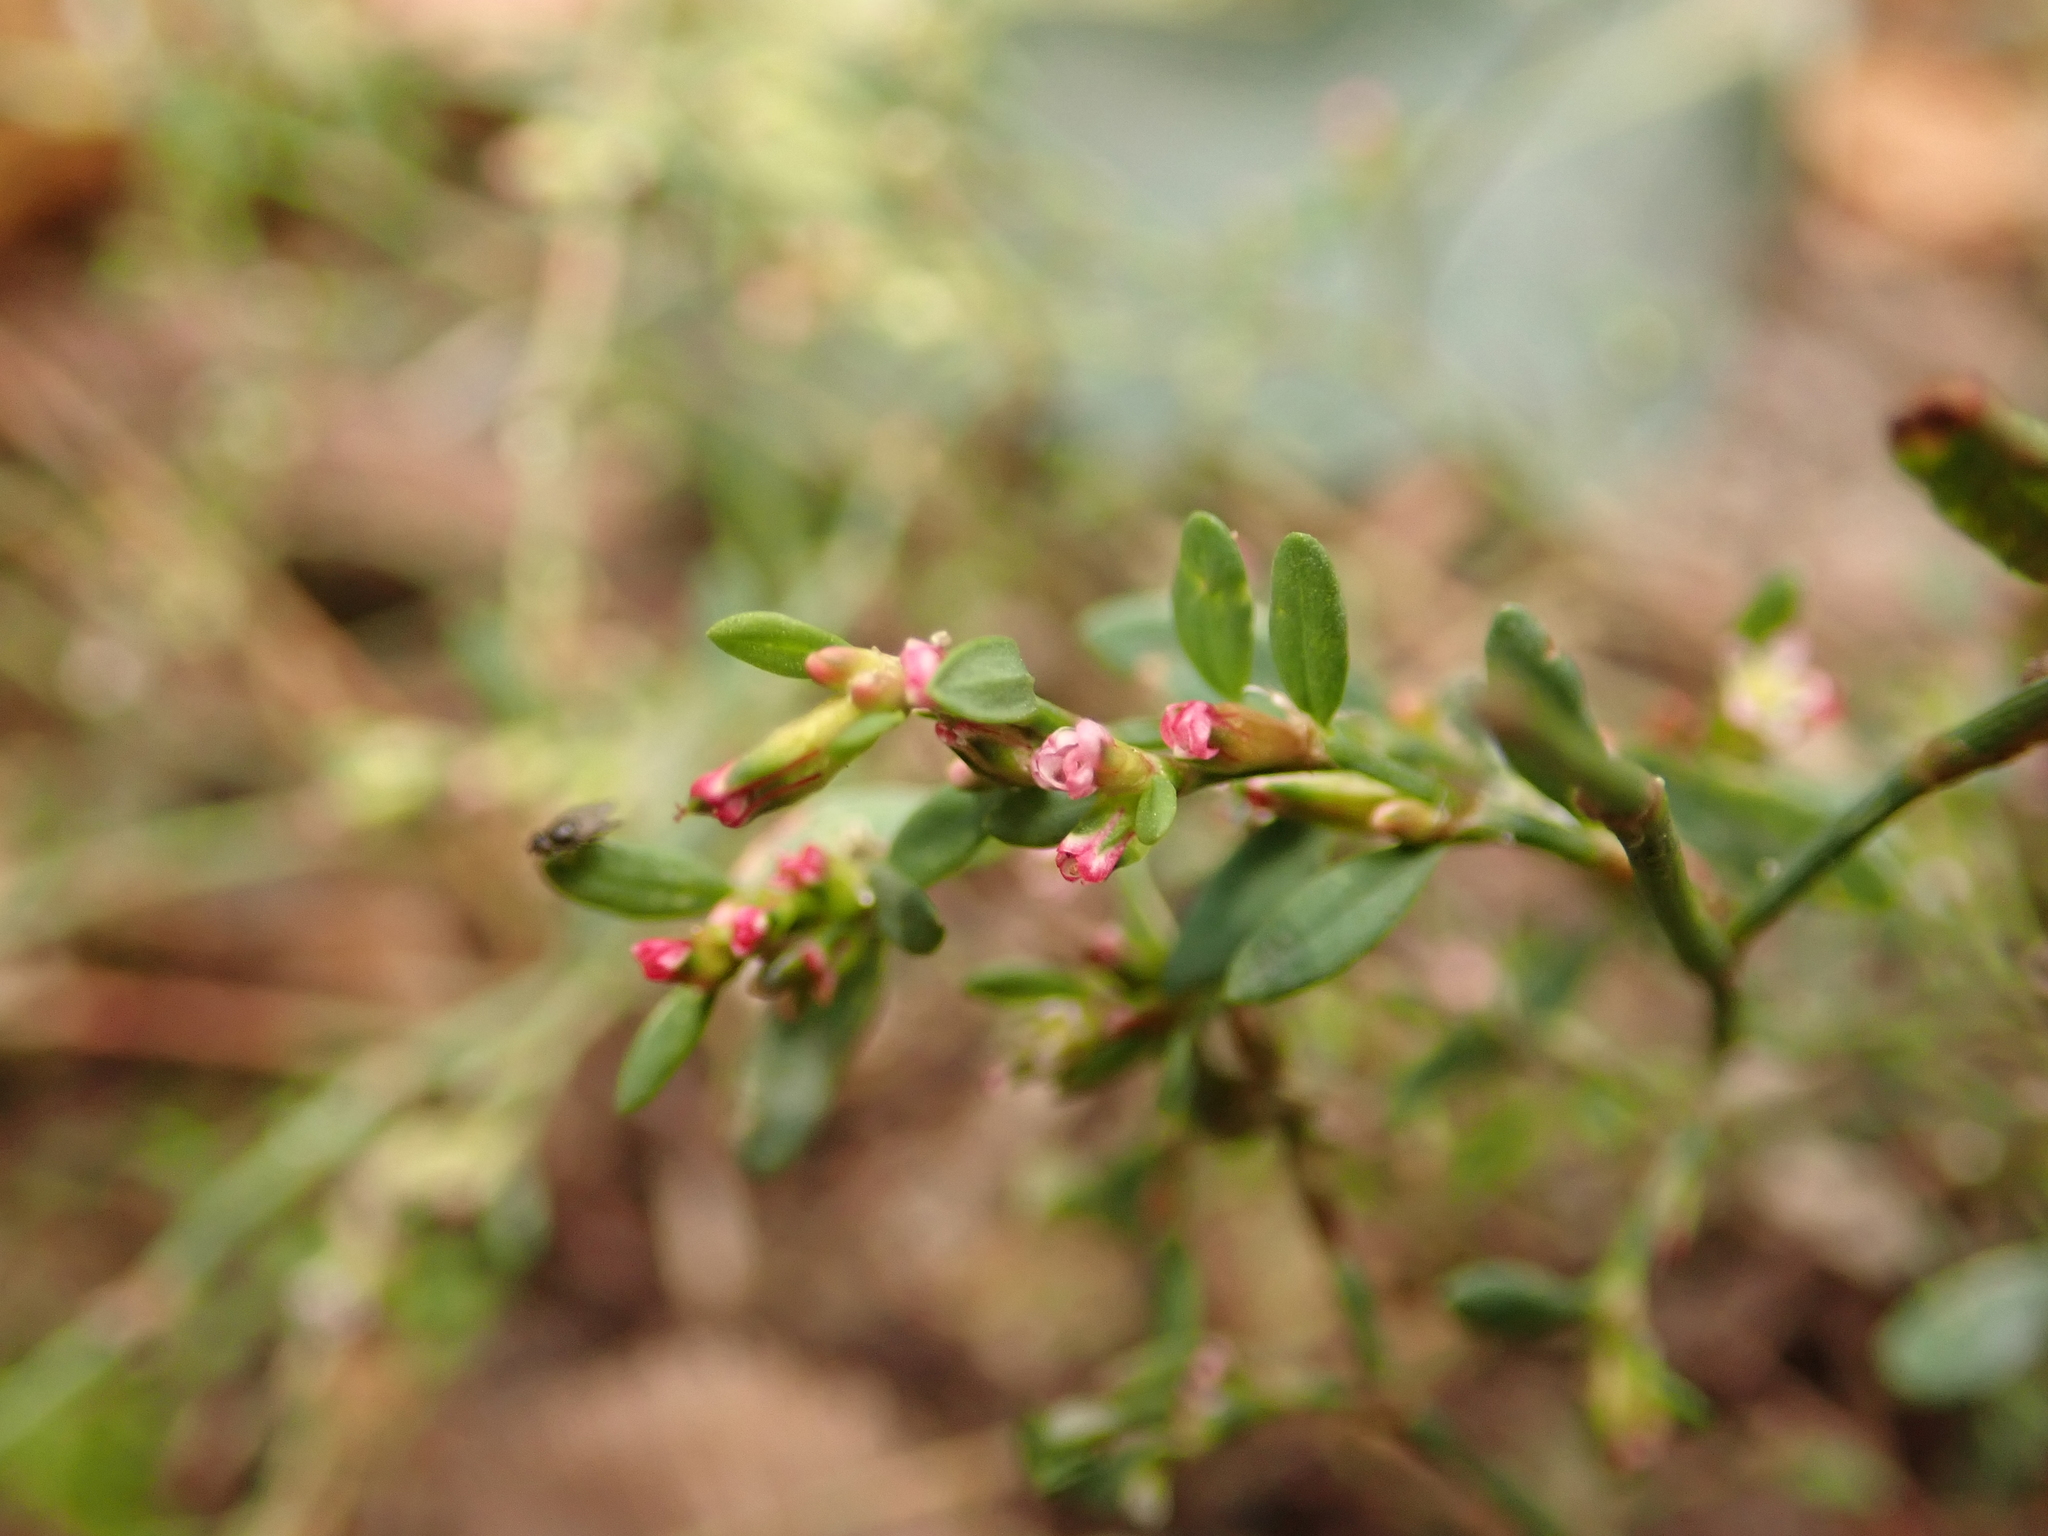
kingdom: Plantae
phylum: Tracheophyta
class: Magnoliopsida
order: Caryophyllales
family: Polygonaceae
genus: Polygonum
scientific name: Polygonum aviculare
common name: Prostrate knotweed
